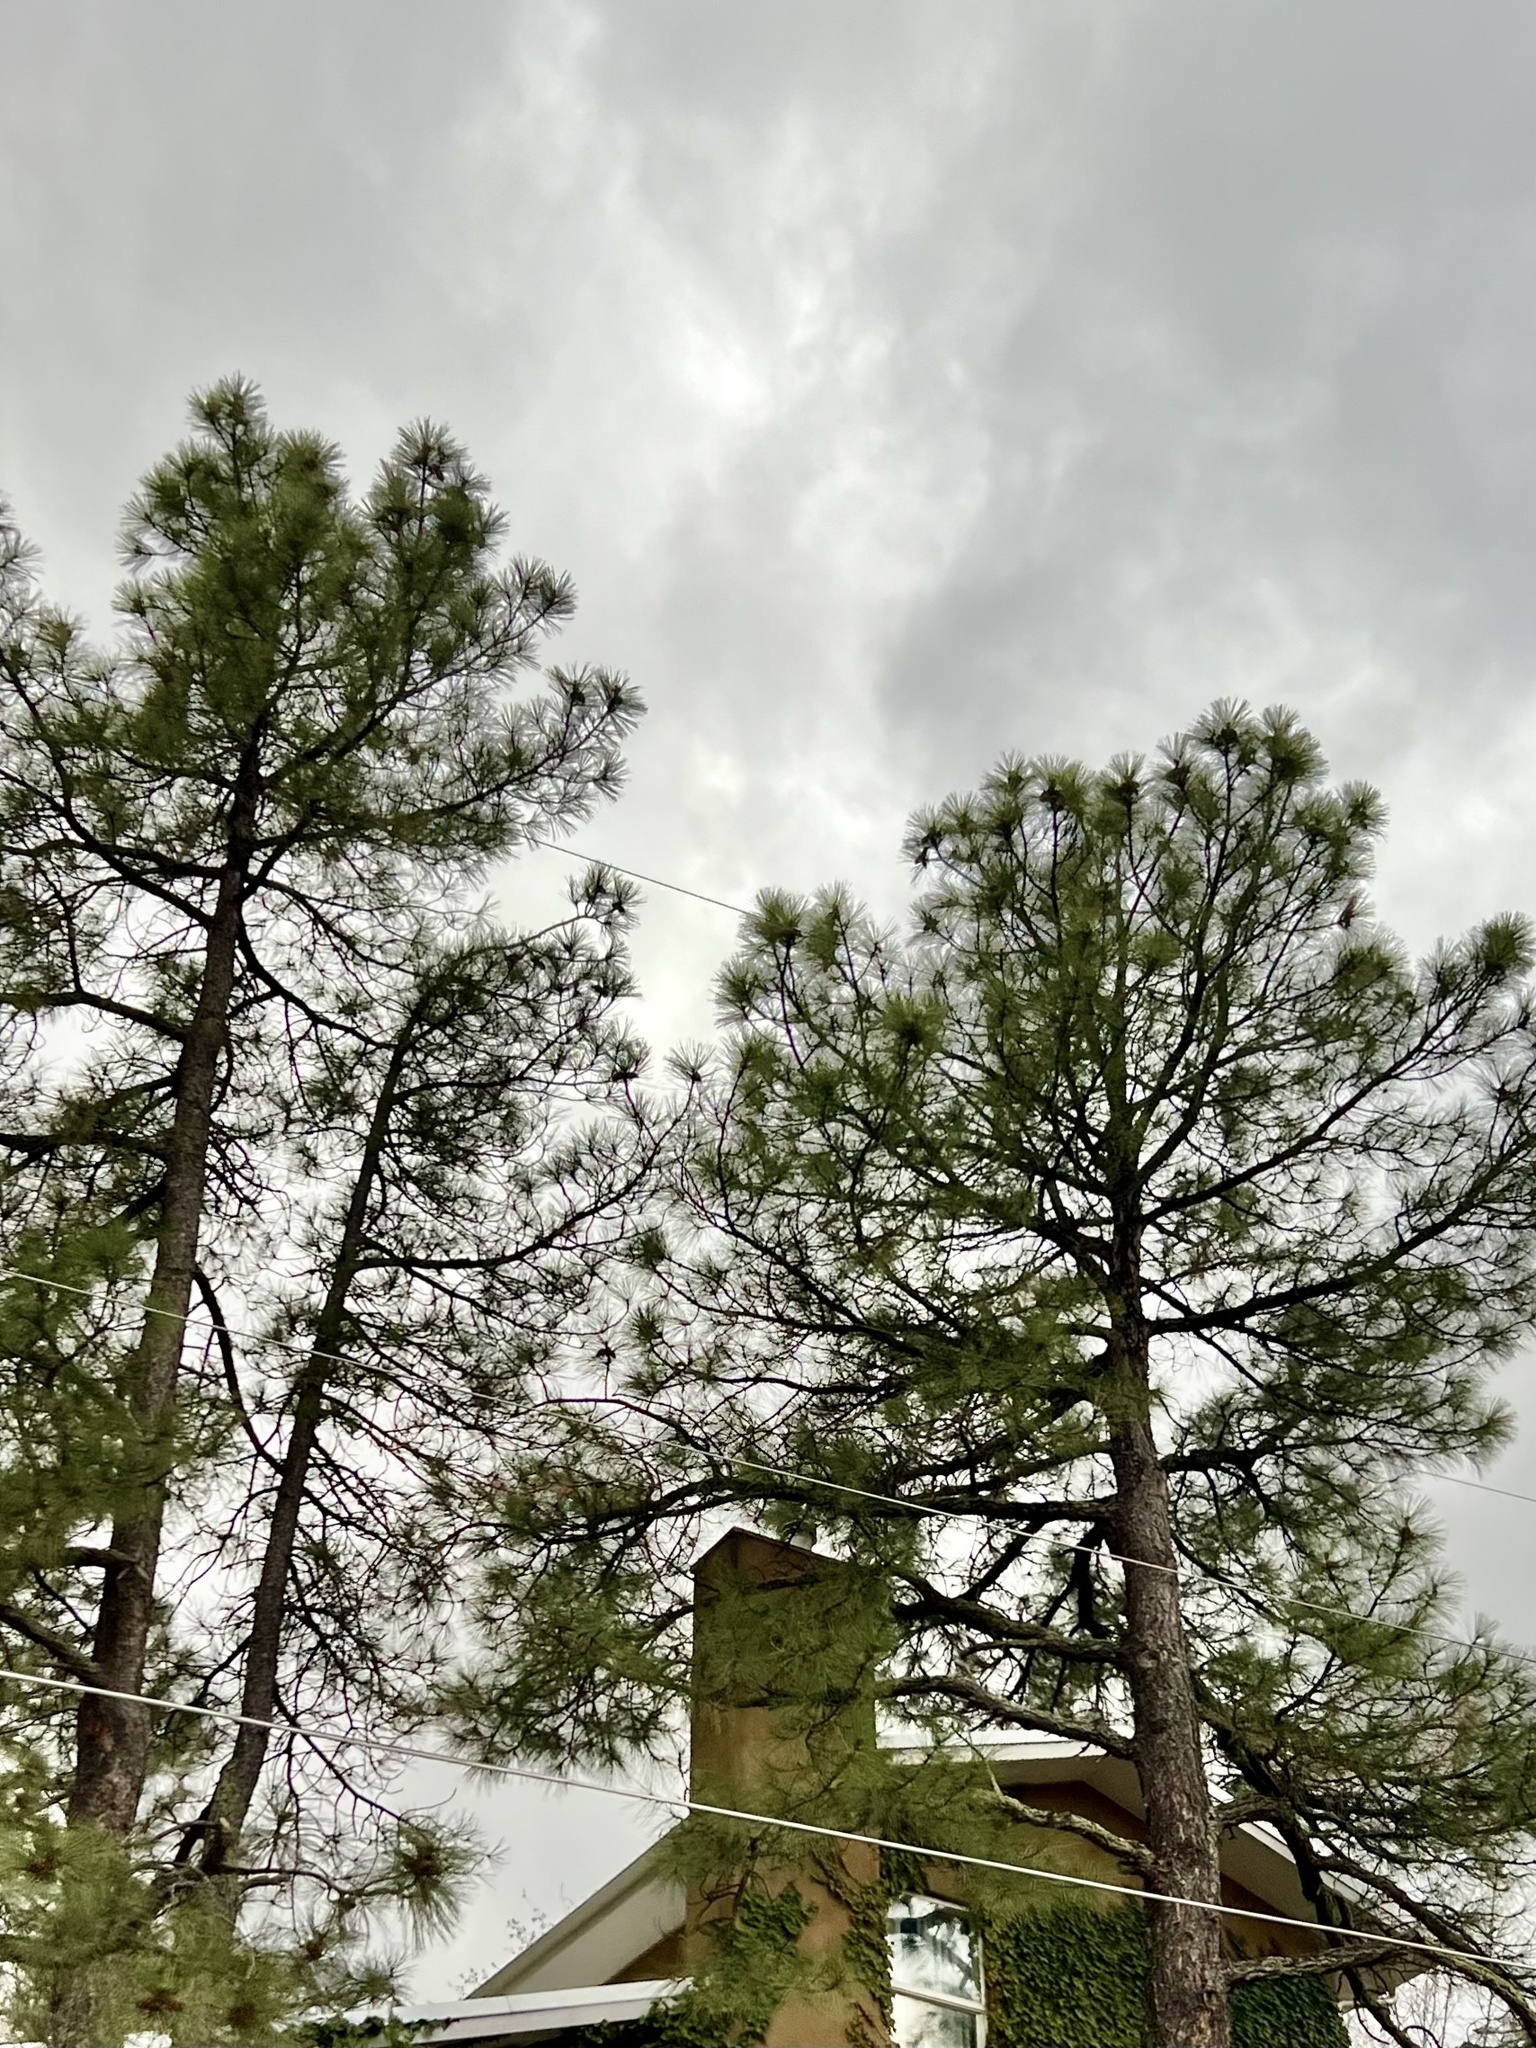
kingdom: Plantae
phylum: Tracheophyta
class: Pinopsida
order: Pinales
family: Pinaceae
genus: Pinus
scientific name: Pinus ponderosa
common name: Western yellow-pine
